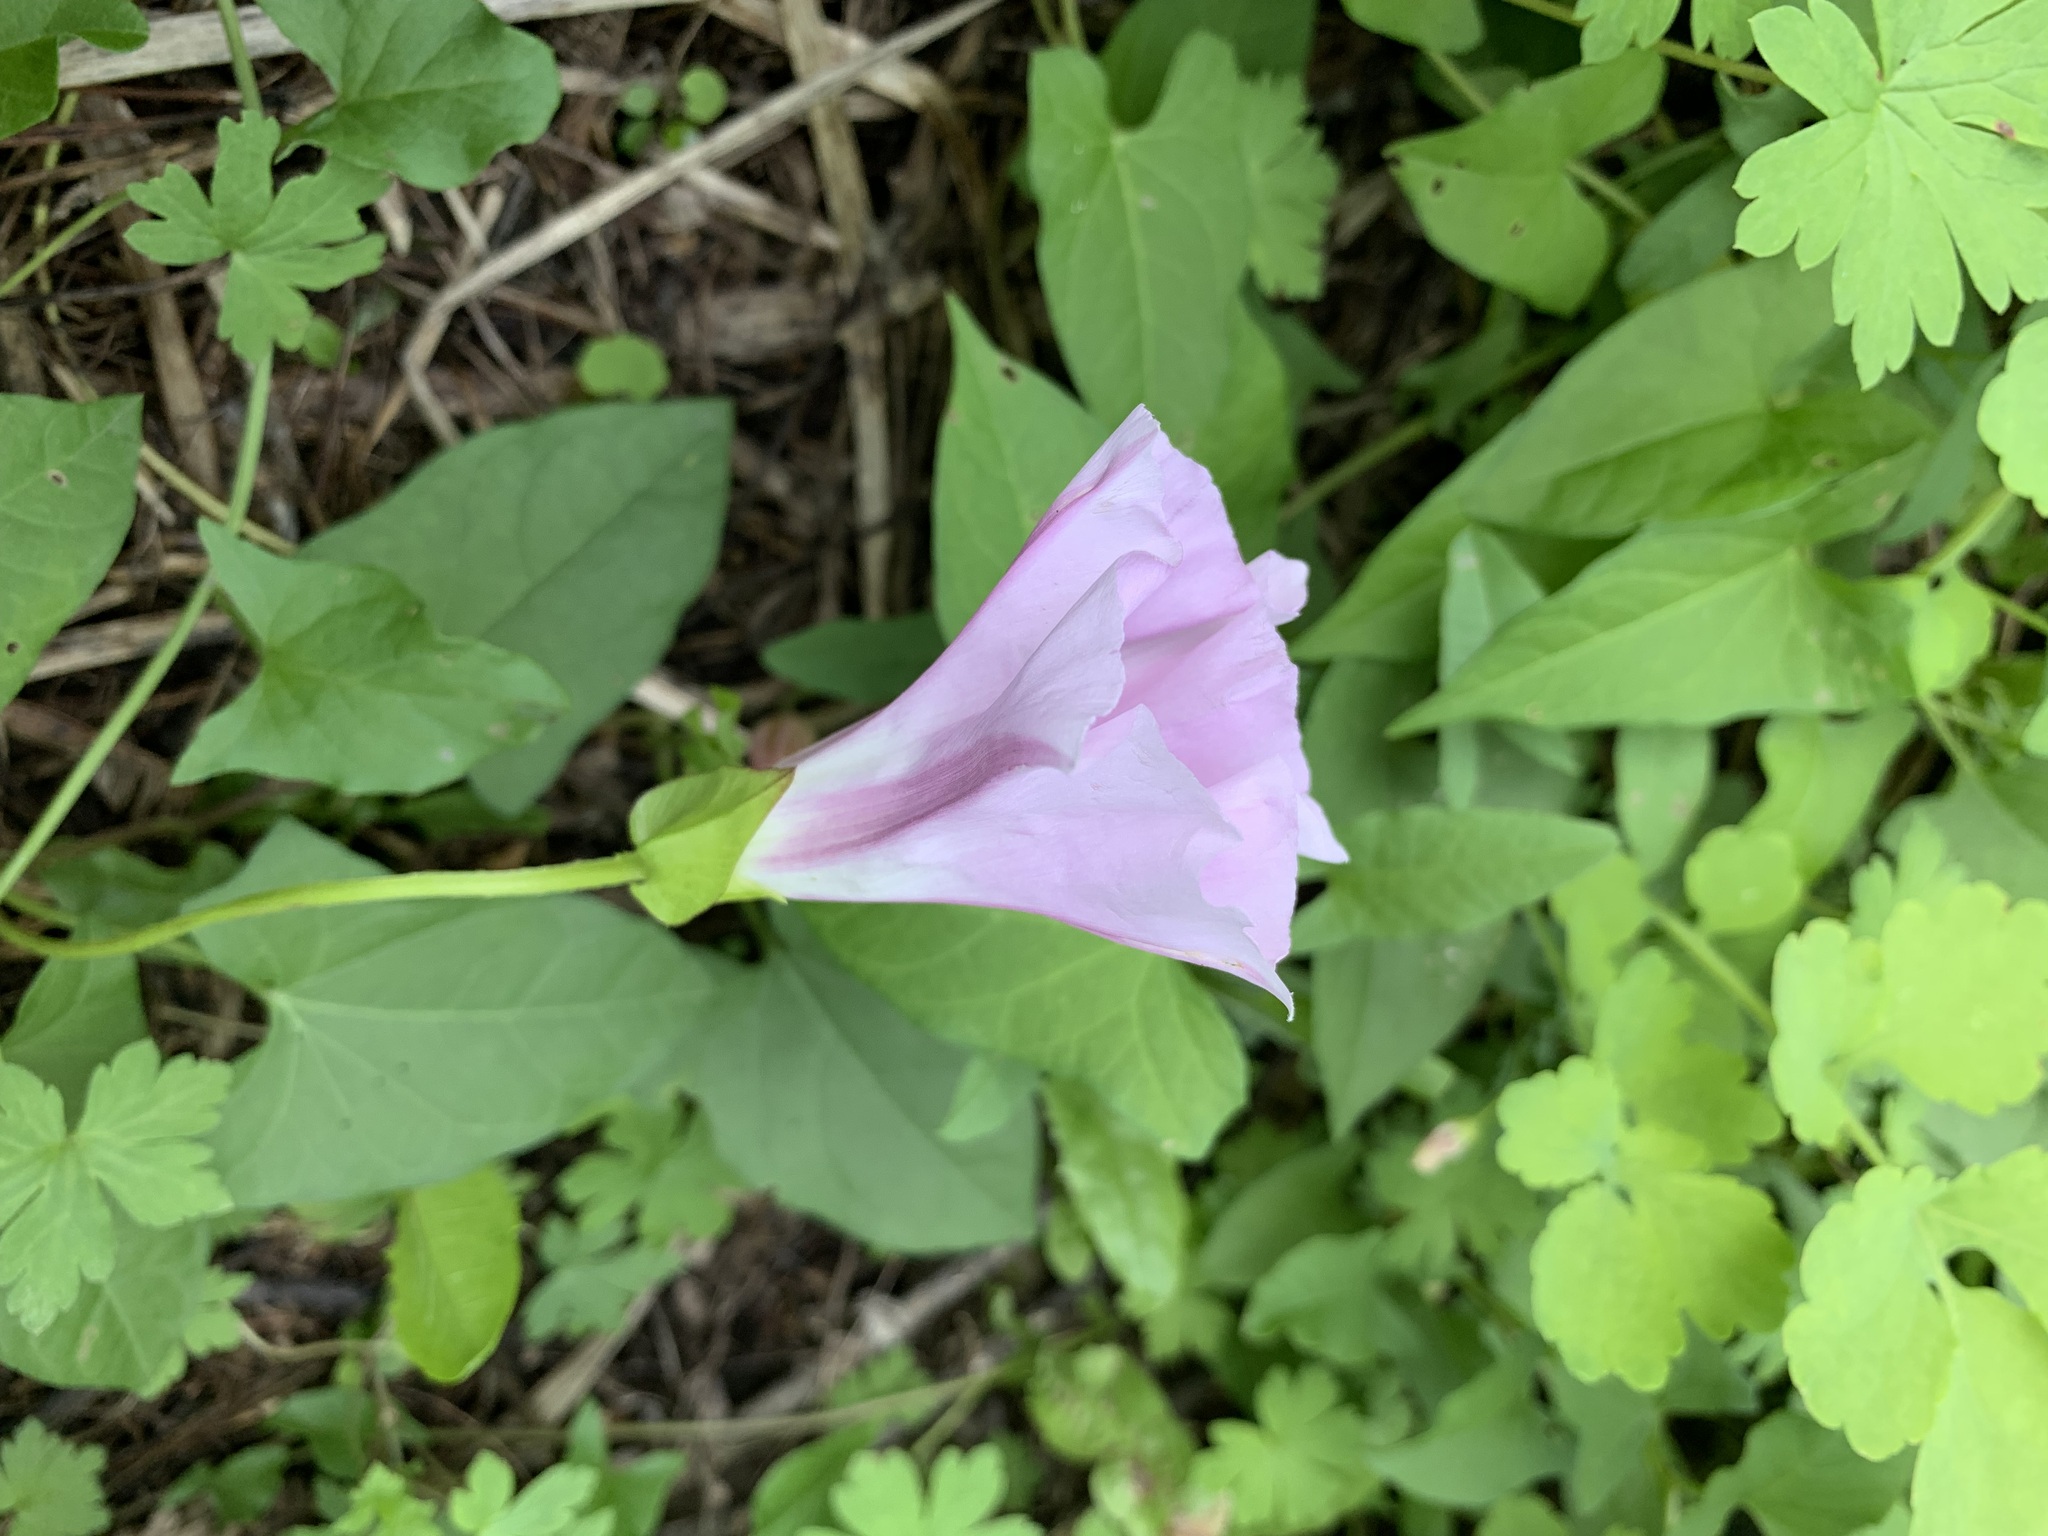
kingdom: Plantae
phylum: Tracheophyta
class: Magnoliopsida
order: Solanales
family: Convolvulaceae
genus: Calystegia
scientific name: Calystegia sepium
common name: Hedge bindweed
